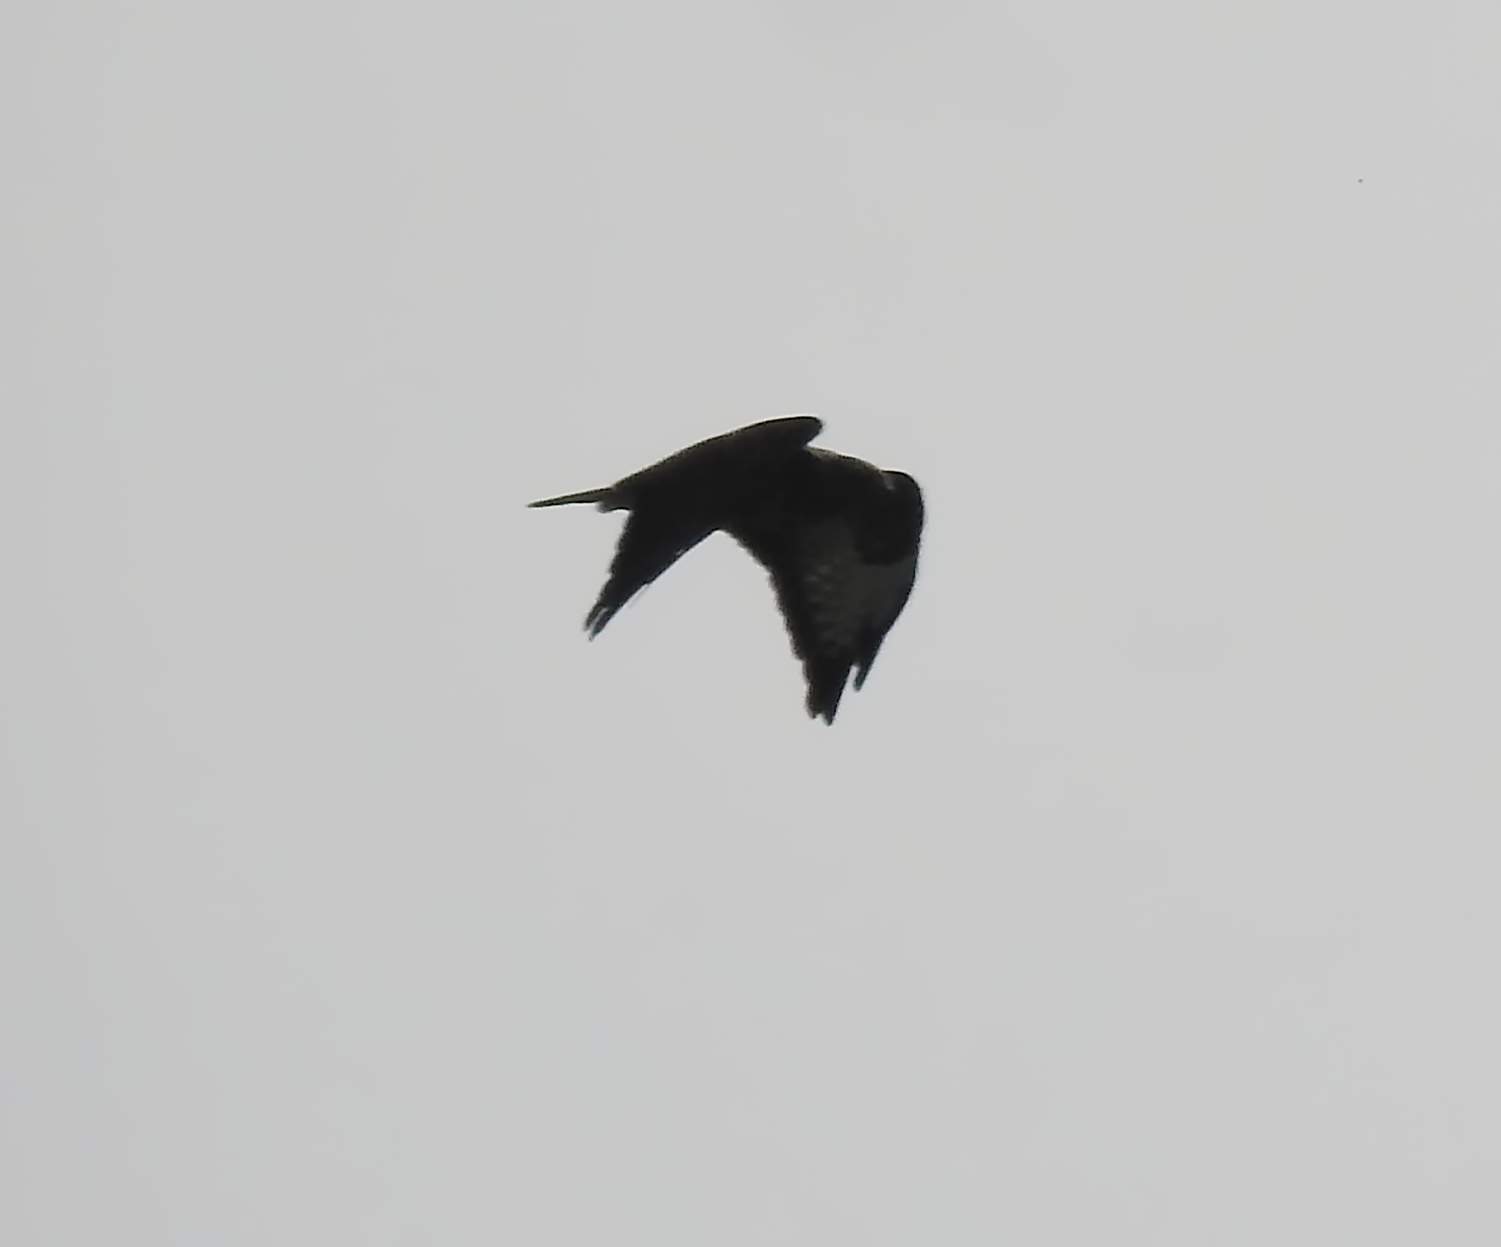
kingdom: Animalia
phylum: Chordata
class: Aves
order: Accipitriformes
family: Accipitridae
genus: Buteo
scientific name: Buteo buteo
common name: Common buzzard
